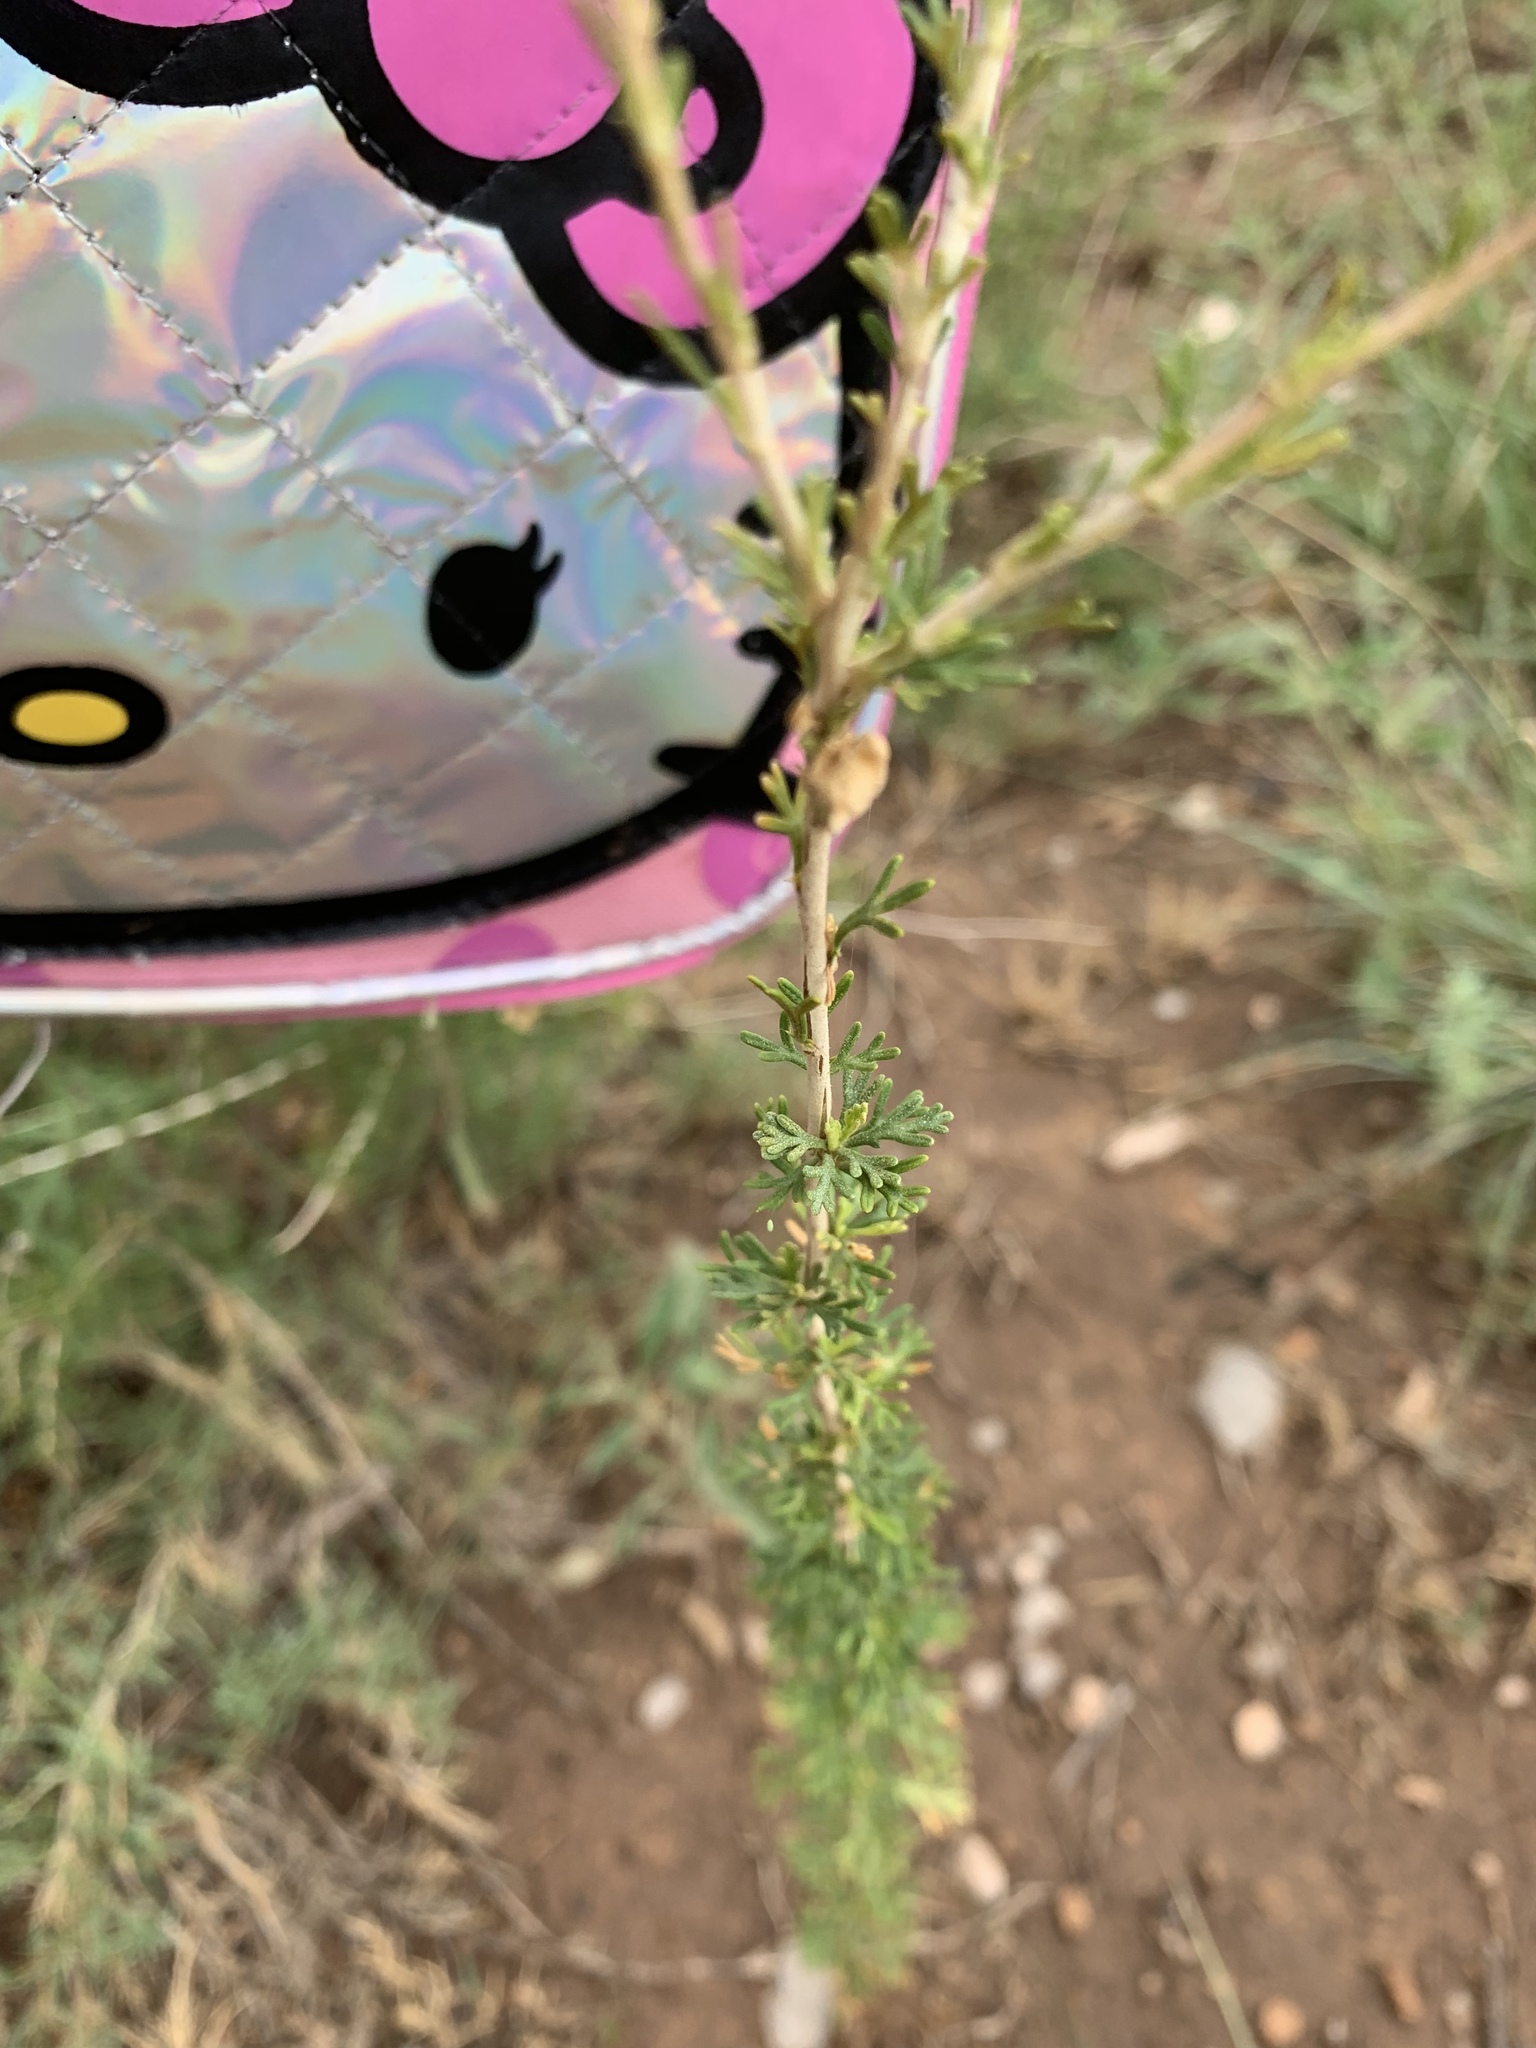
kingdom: Plantae
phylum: Tracheophyta
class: Magnoliopsida
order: Rosales
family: Rosaceae
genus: Fallugia
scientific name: Fallugia paradoxa
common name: Apache-plume
